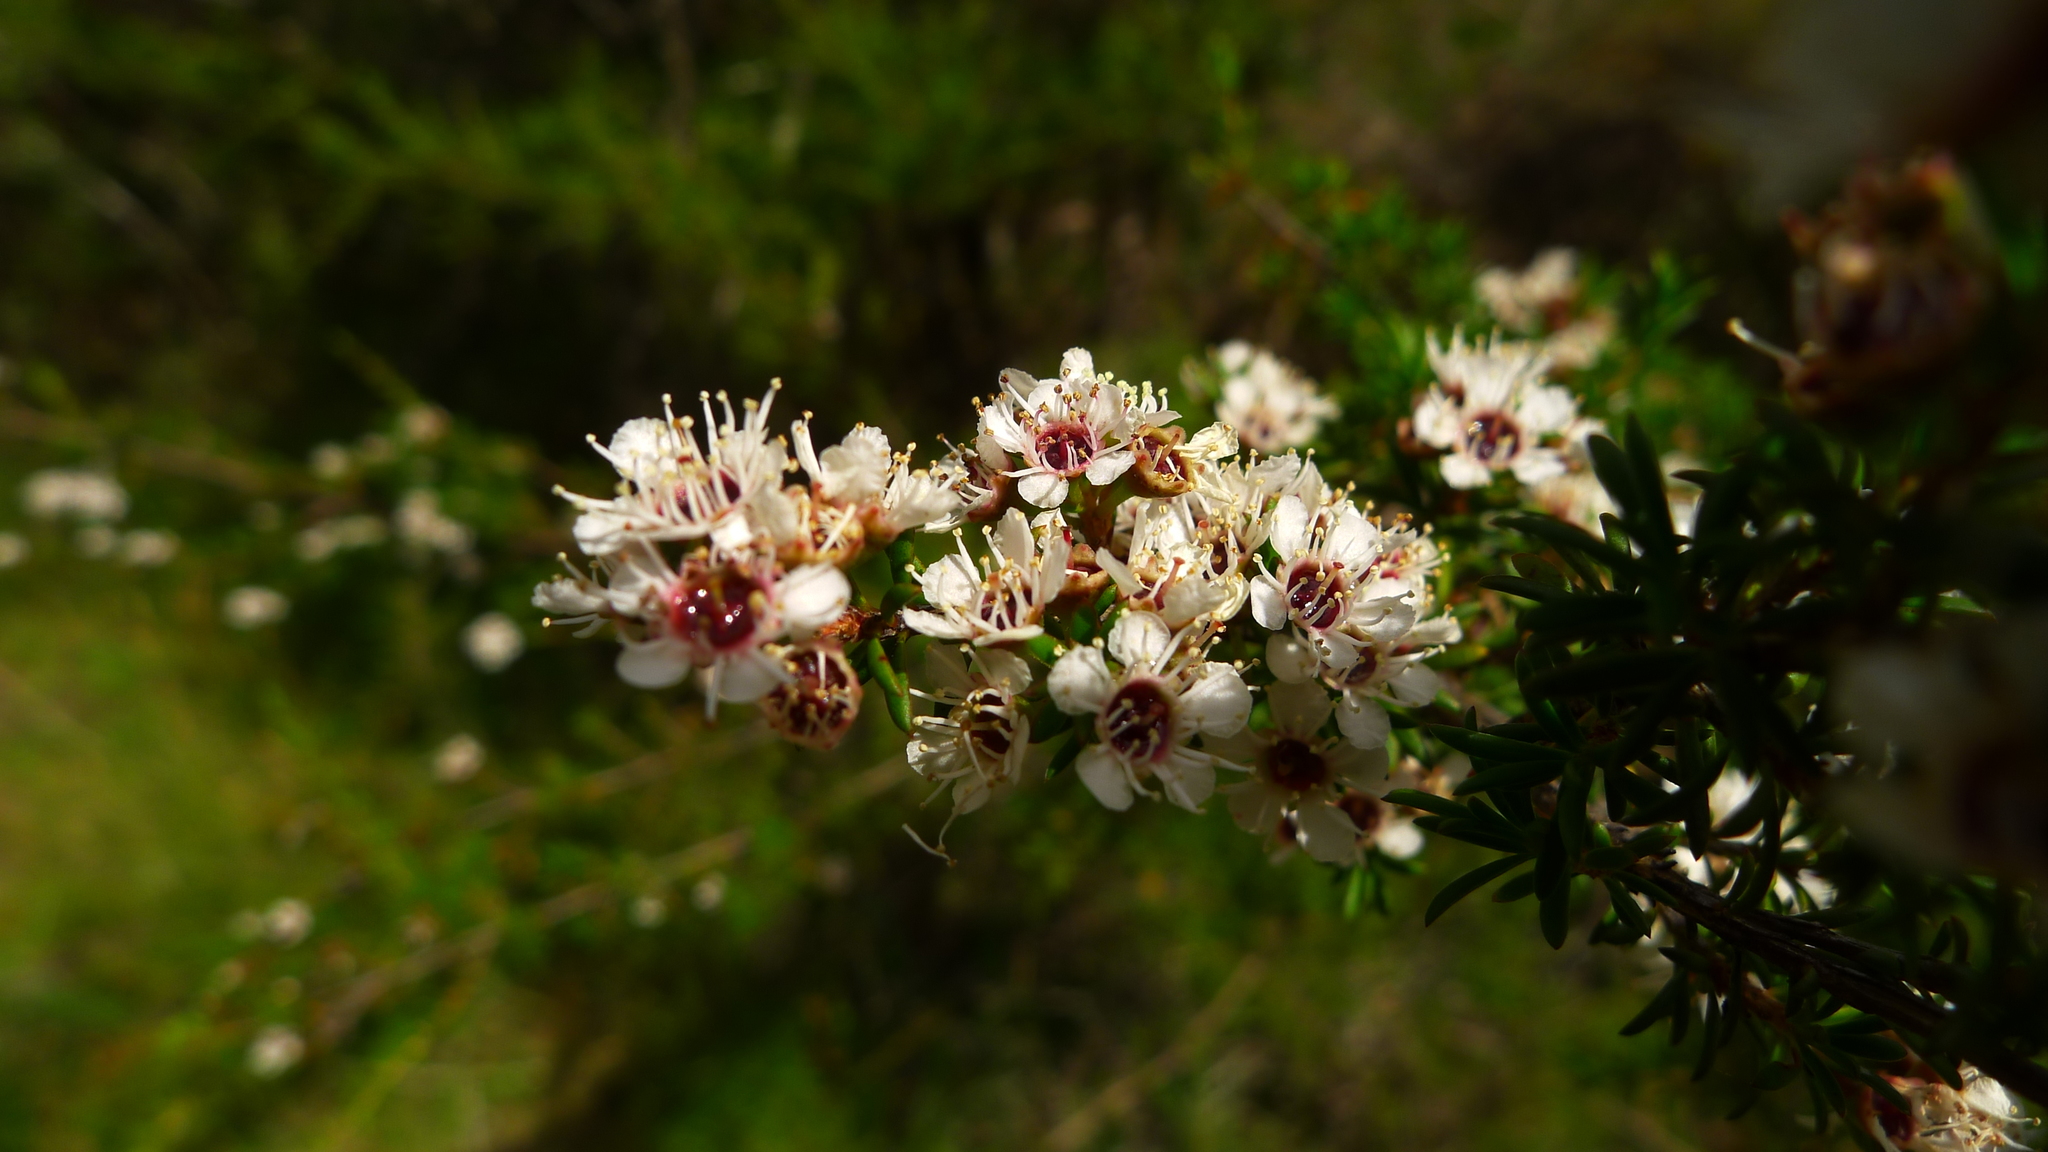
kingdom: Plantae
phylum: Tracheophyta
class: Magnoliopsida
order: Myrtales
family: Myrtaceae
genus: Kunzea
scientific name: Kunzea ericoides
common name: Burgan
